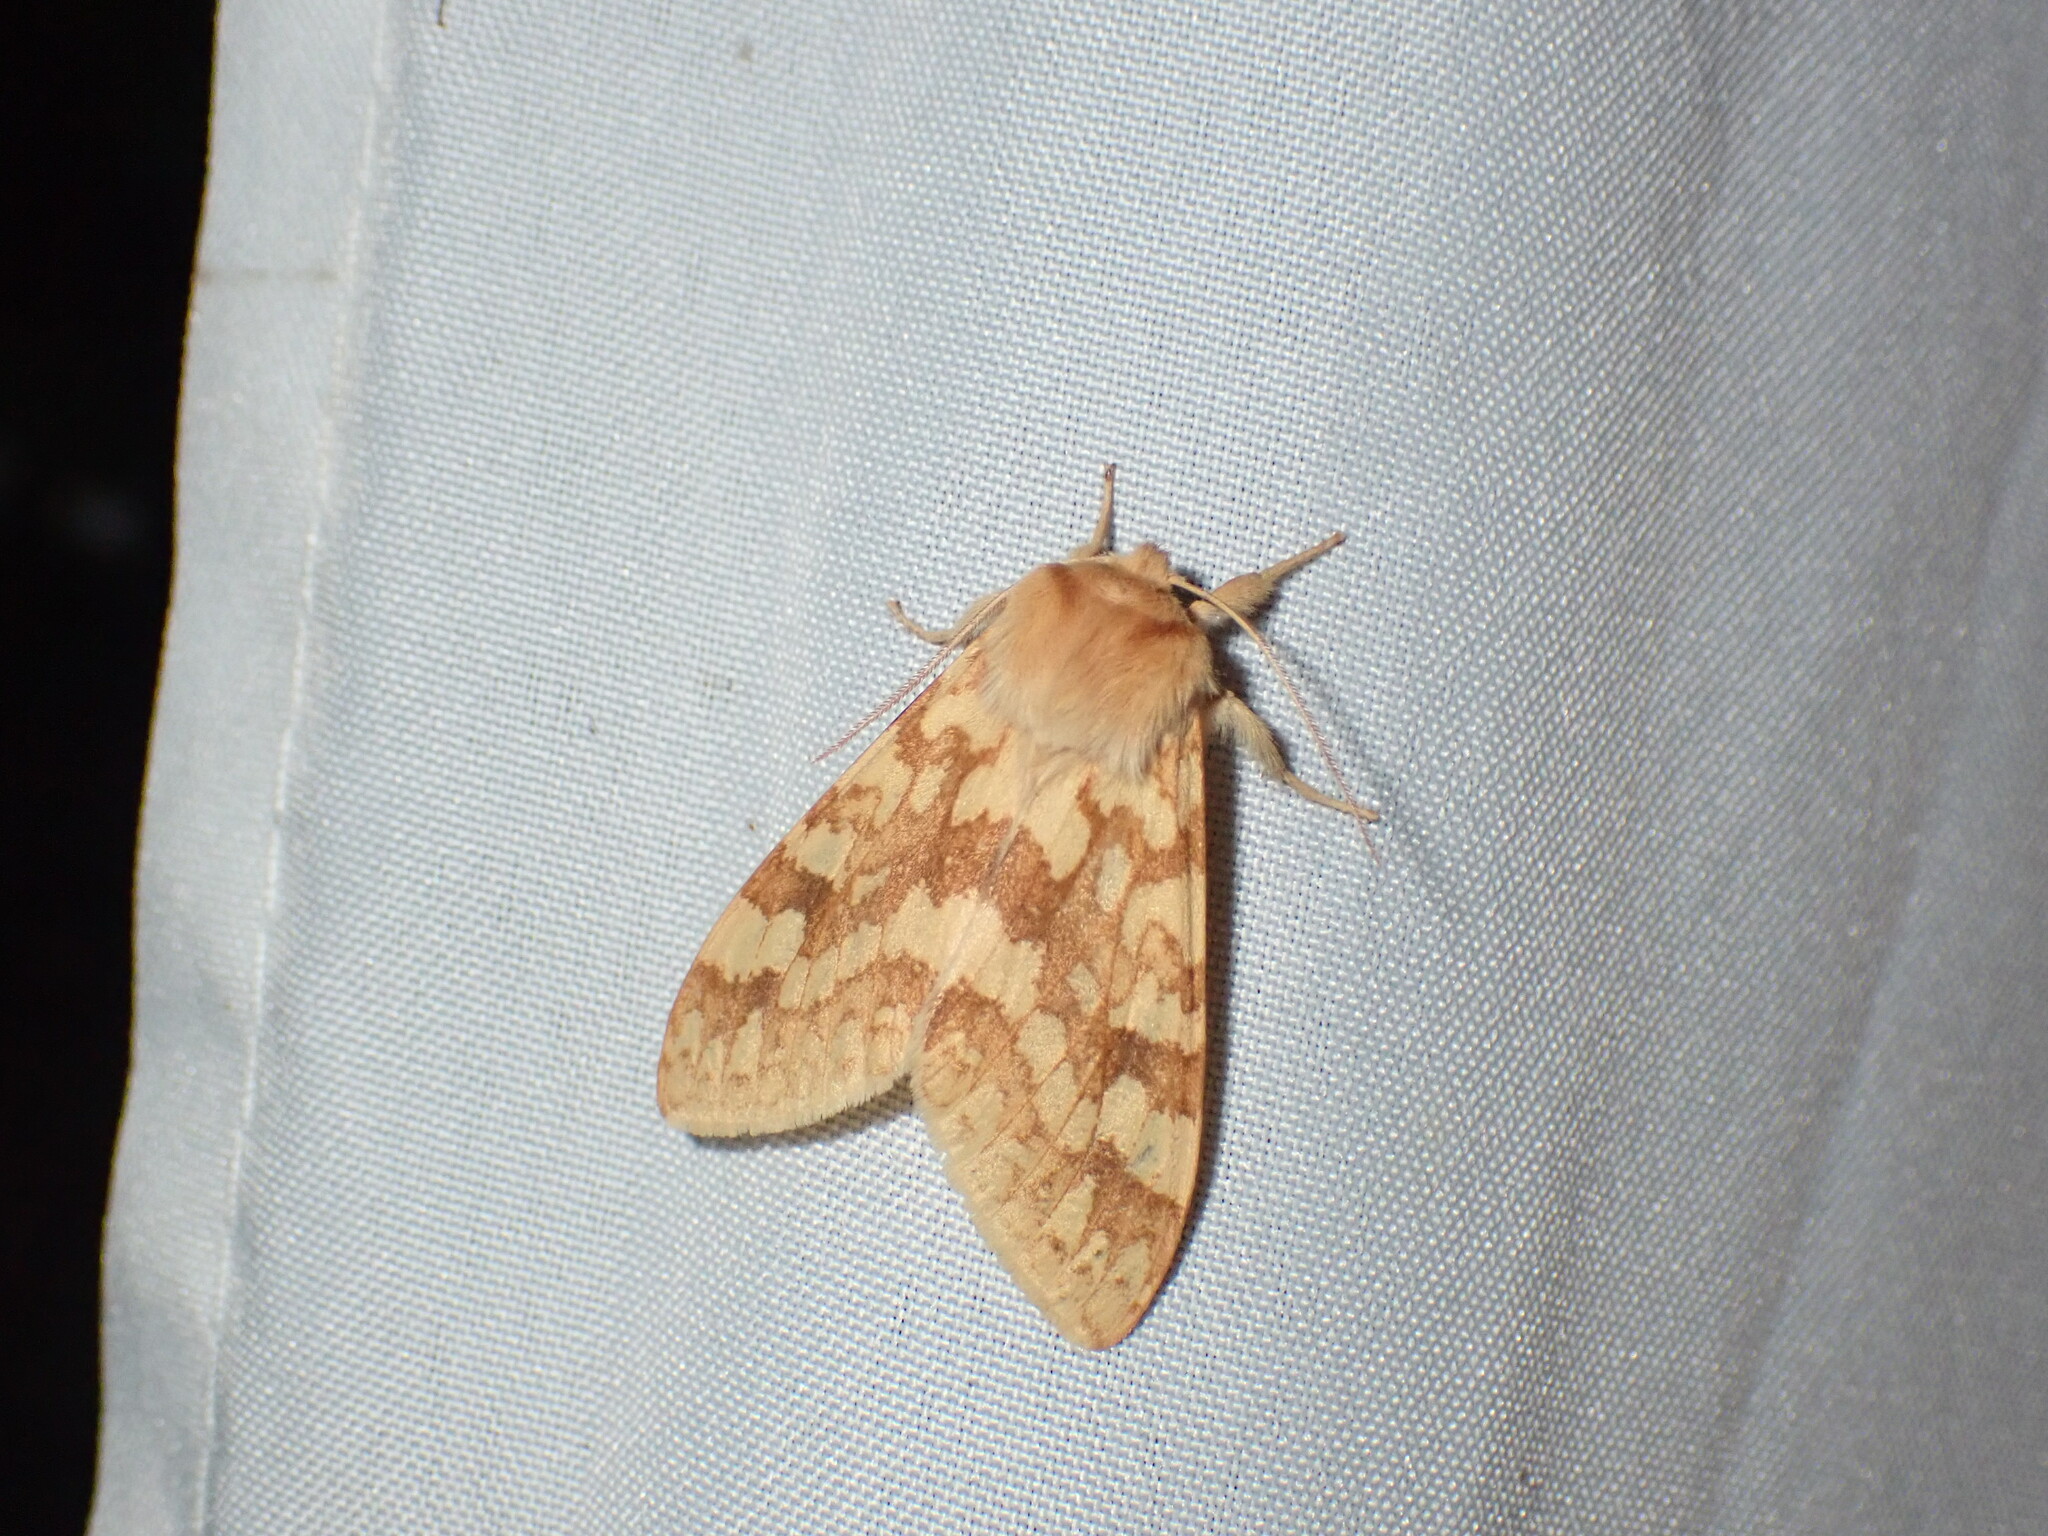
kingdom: Animalia
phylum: Arthropoda
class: Insecta
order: Lepidoptera
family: Erebidae
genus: Lophocampa
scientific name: Lophocampa maculata
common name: Spotted tussock moth
